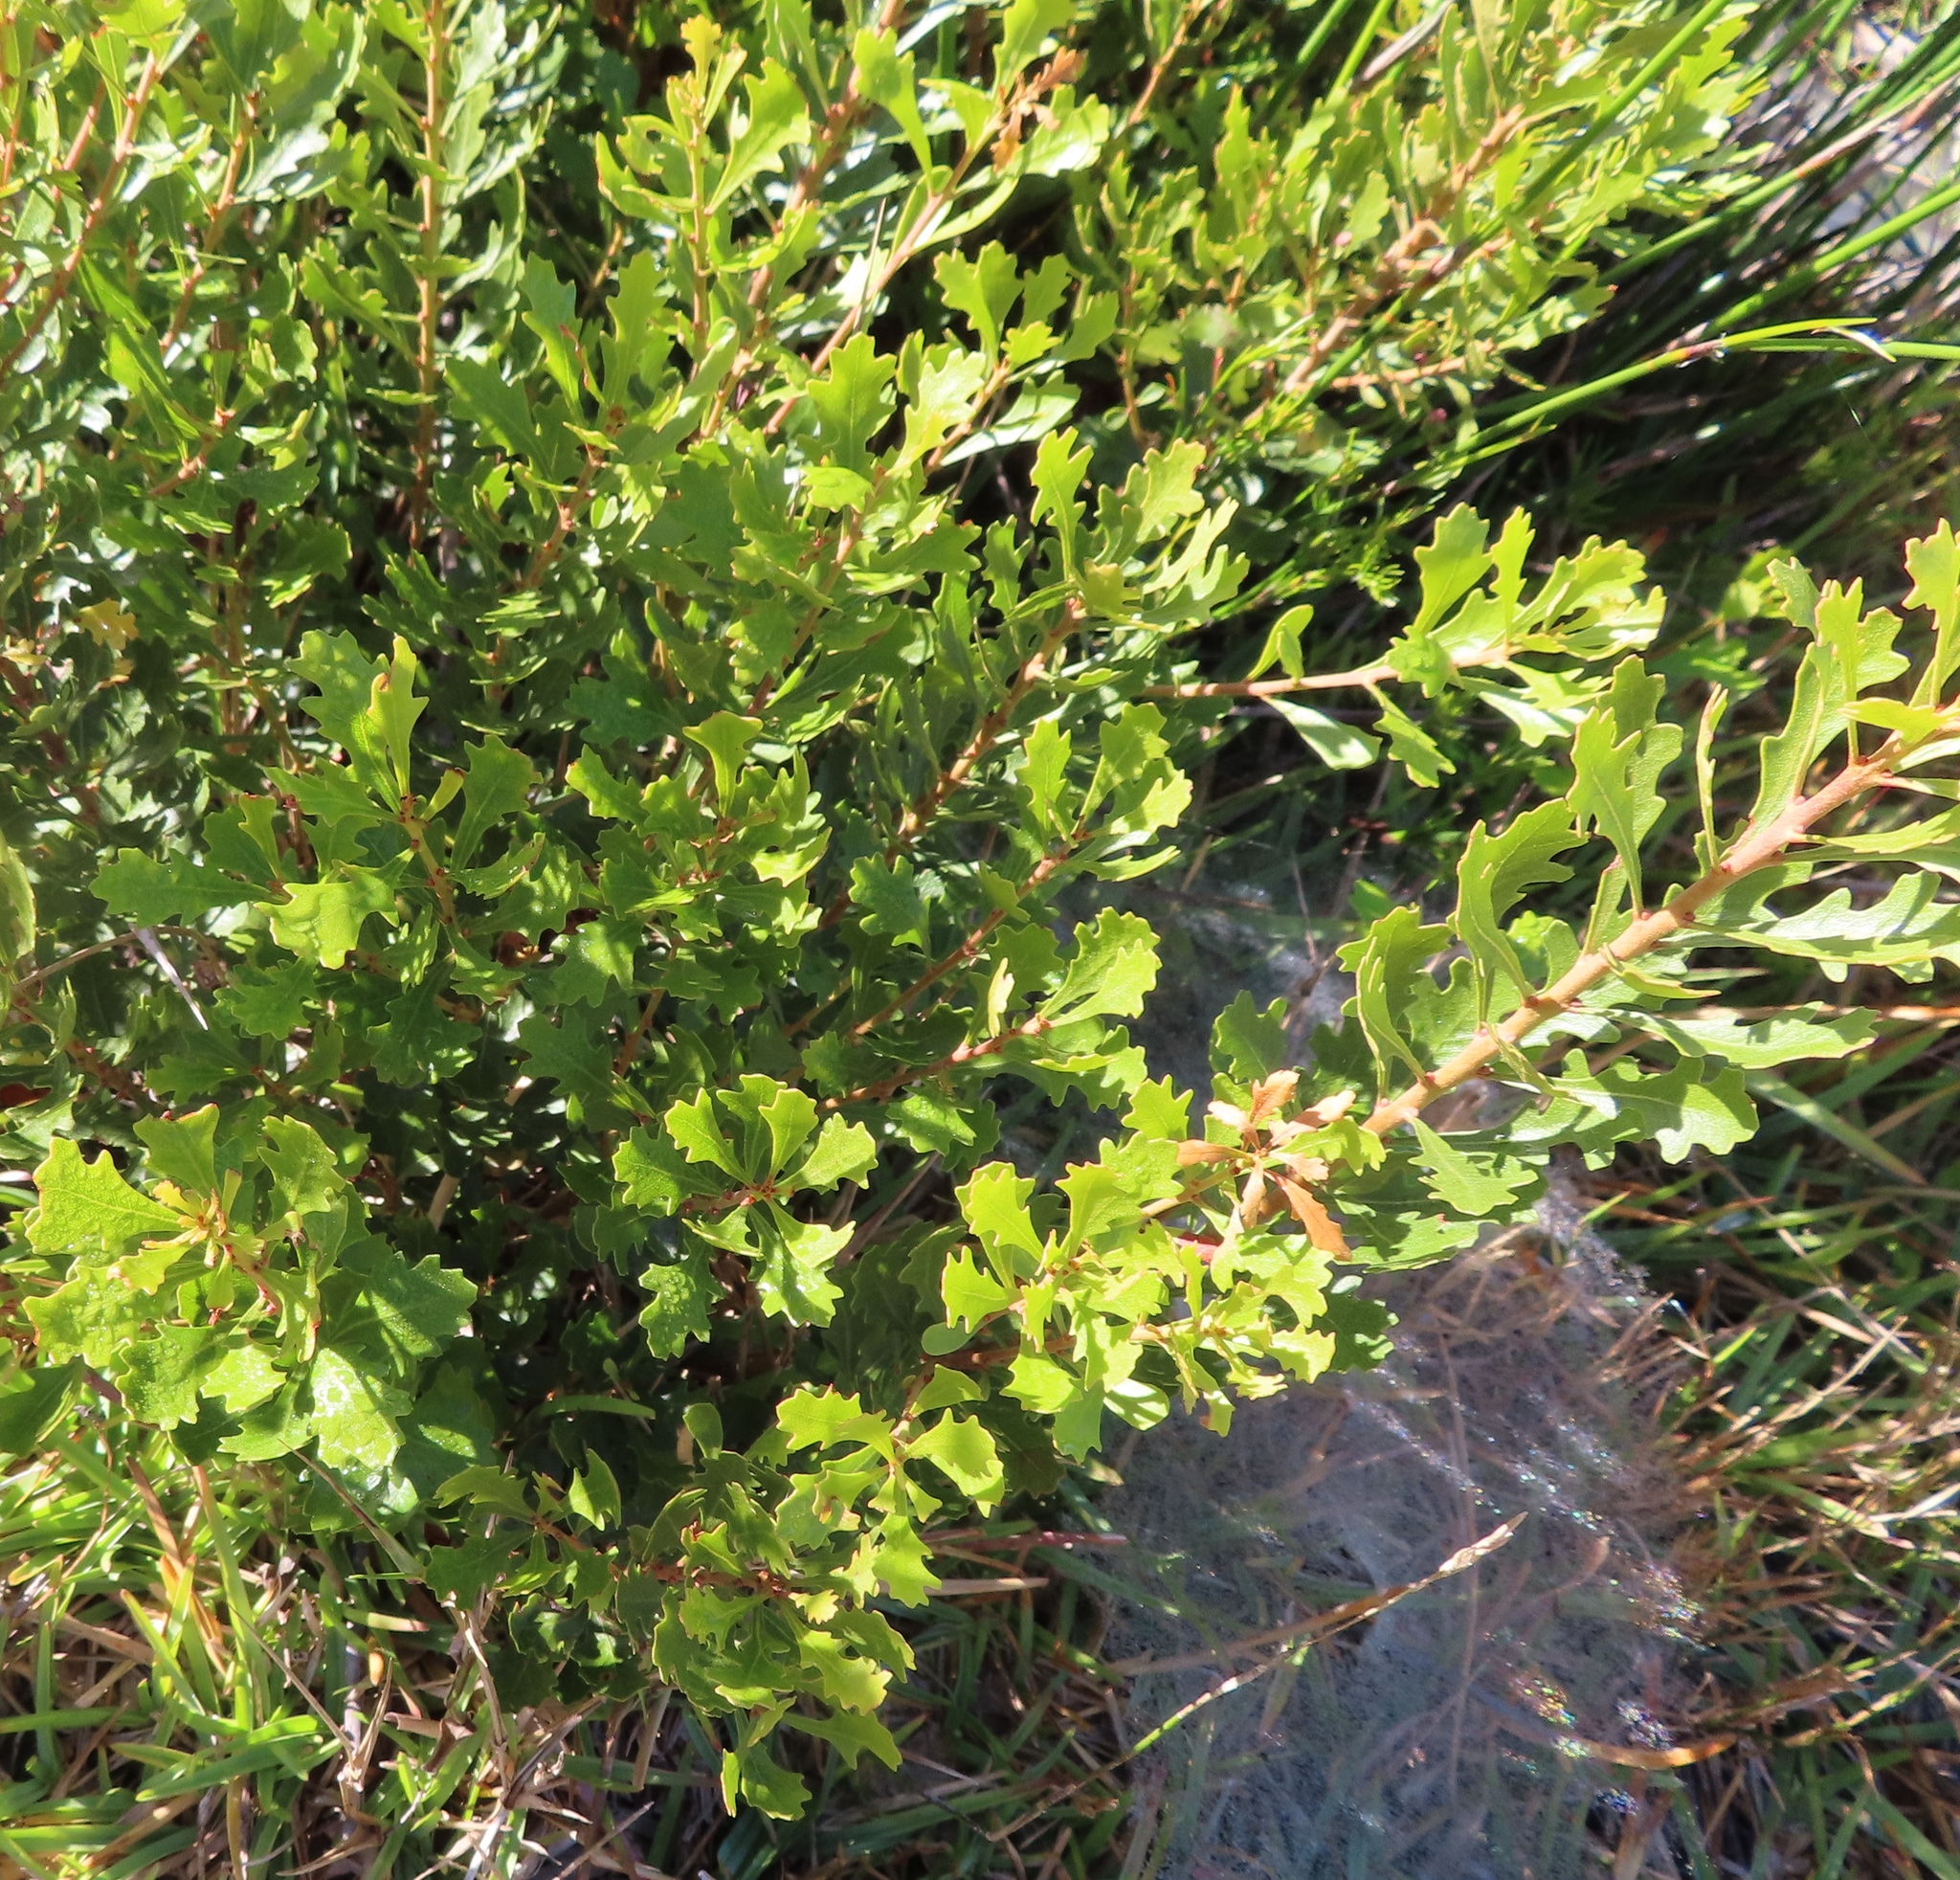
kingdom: Plantae
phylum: Tracheophyta
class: Magnoliopsida
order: Fagales
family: Myricaceae
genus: Morella
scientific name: Morella quercifolia
